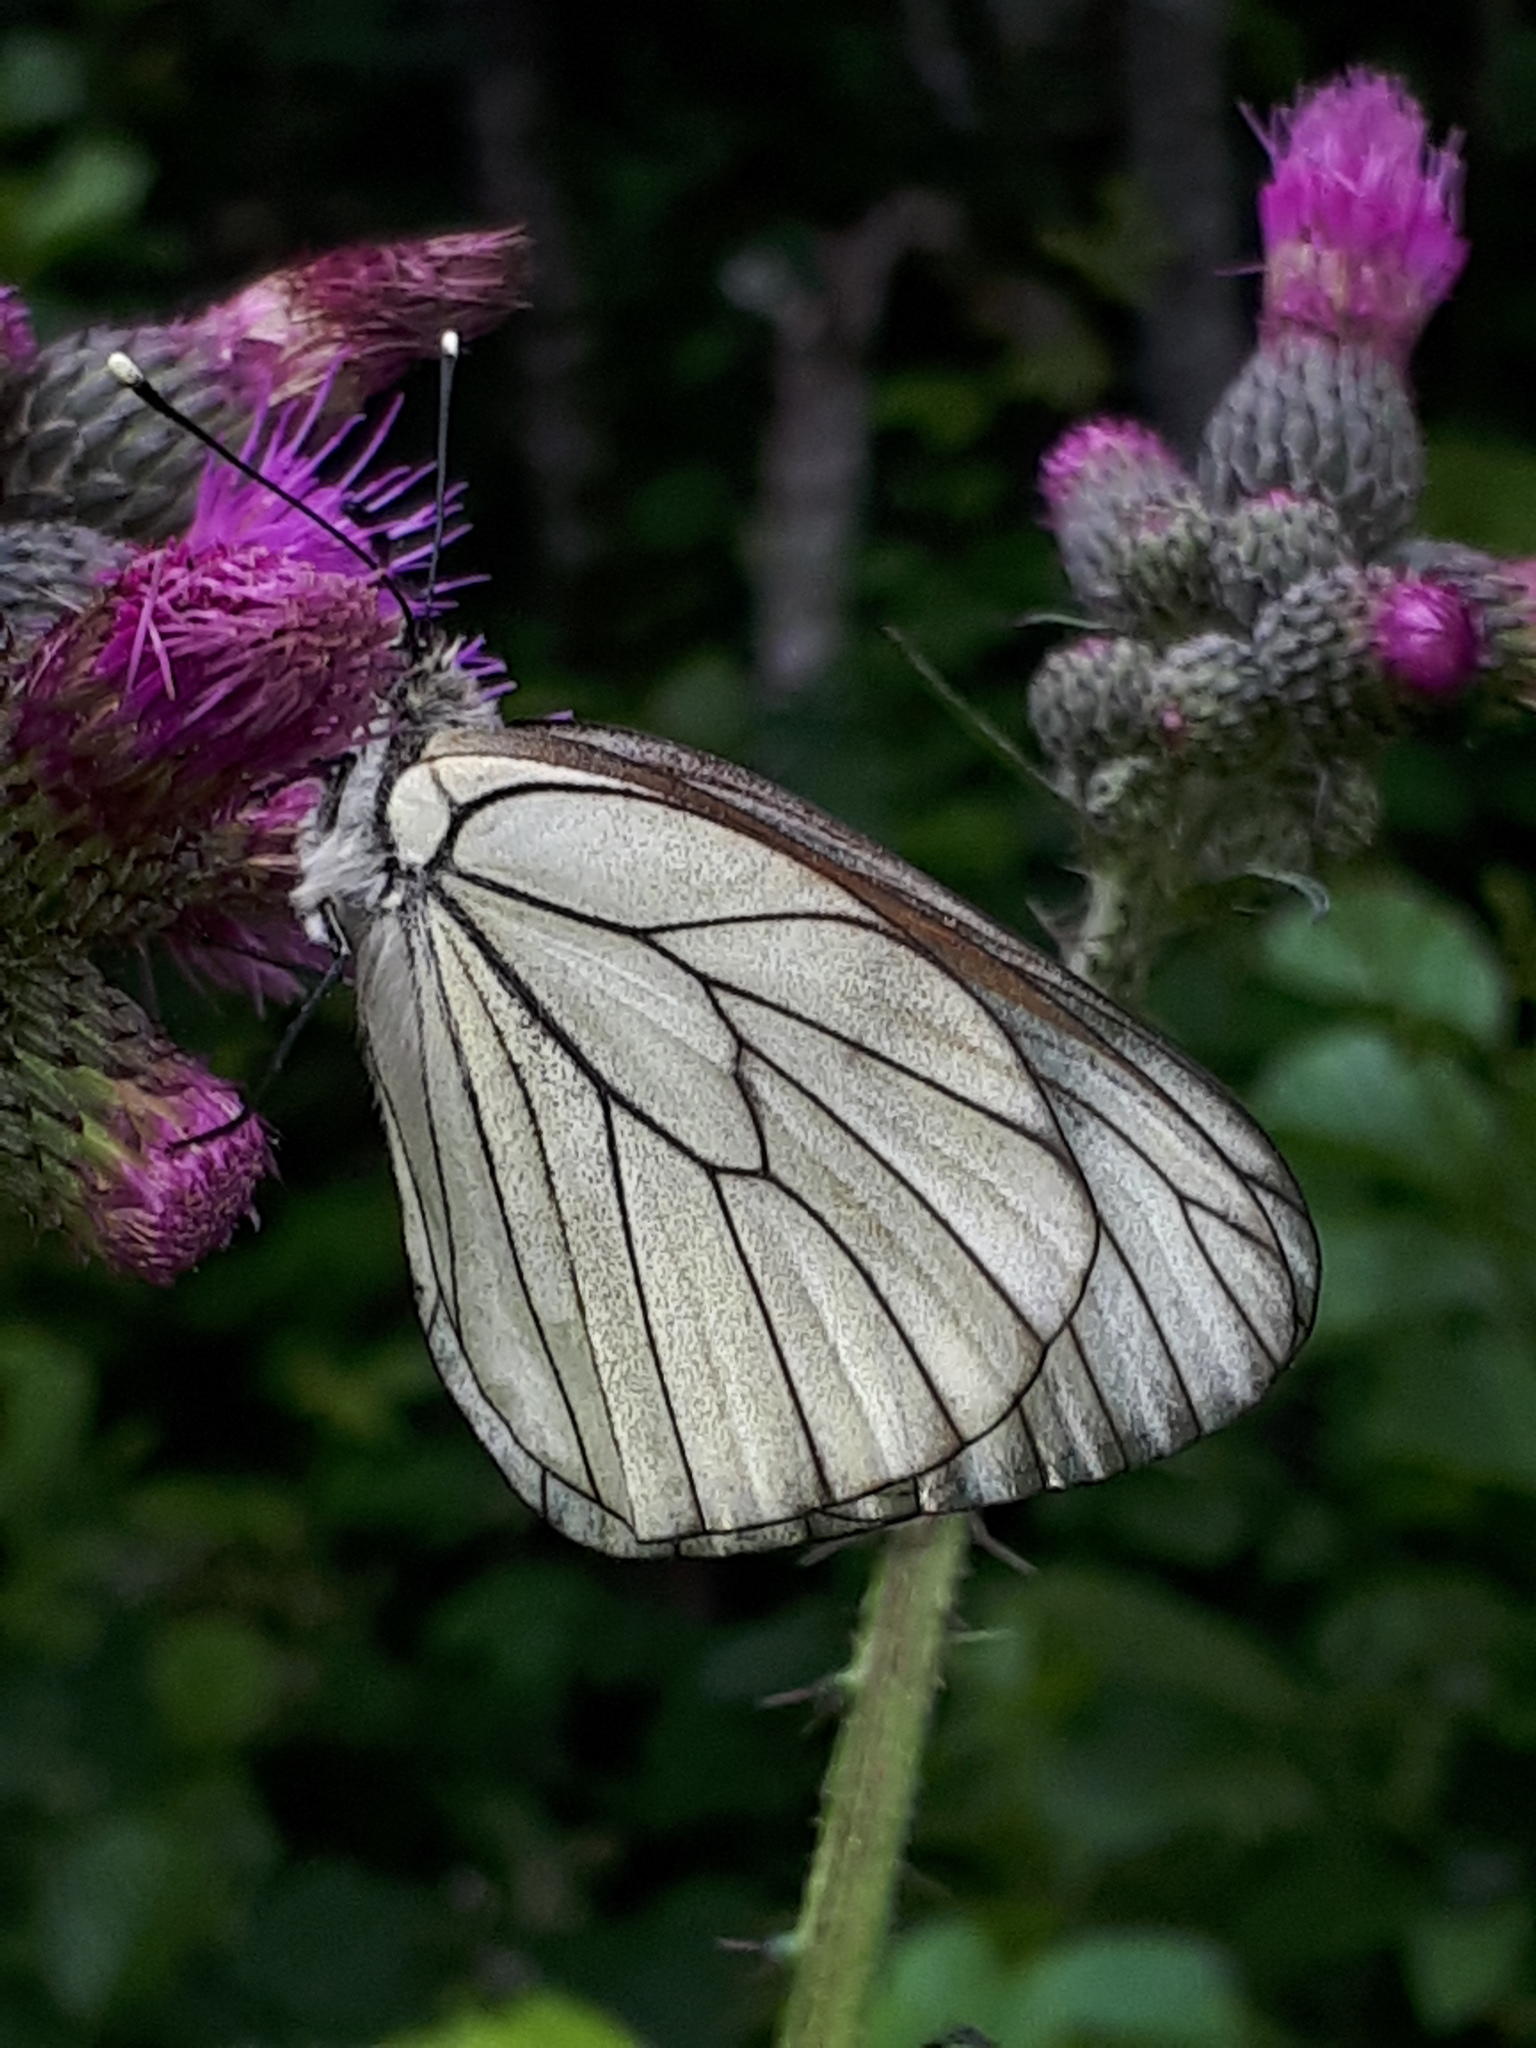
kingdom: Animalia
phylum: Arthropoda
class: Insecta
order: Lepidoptera
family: Pieridae
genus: Aporia
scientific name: Aporia crataegi
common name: Black-veined white
